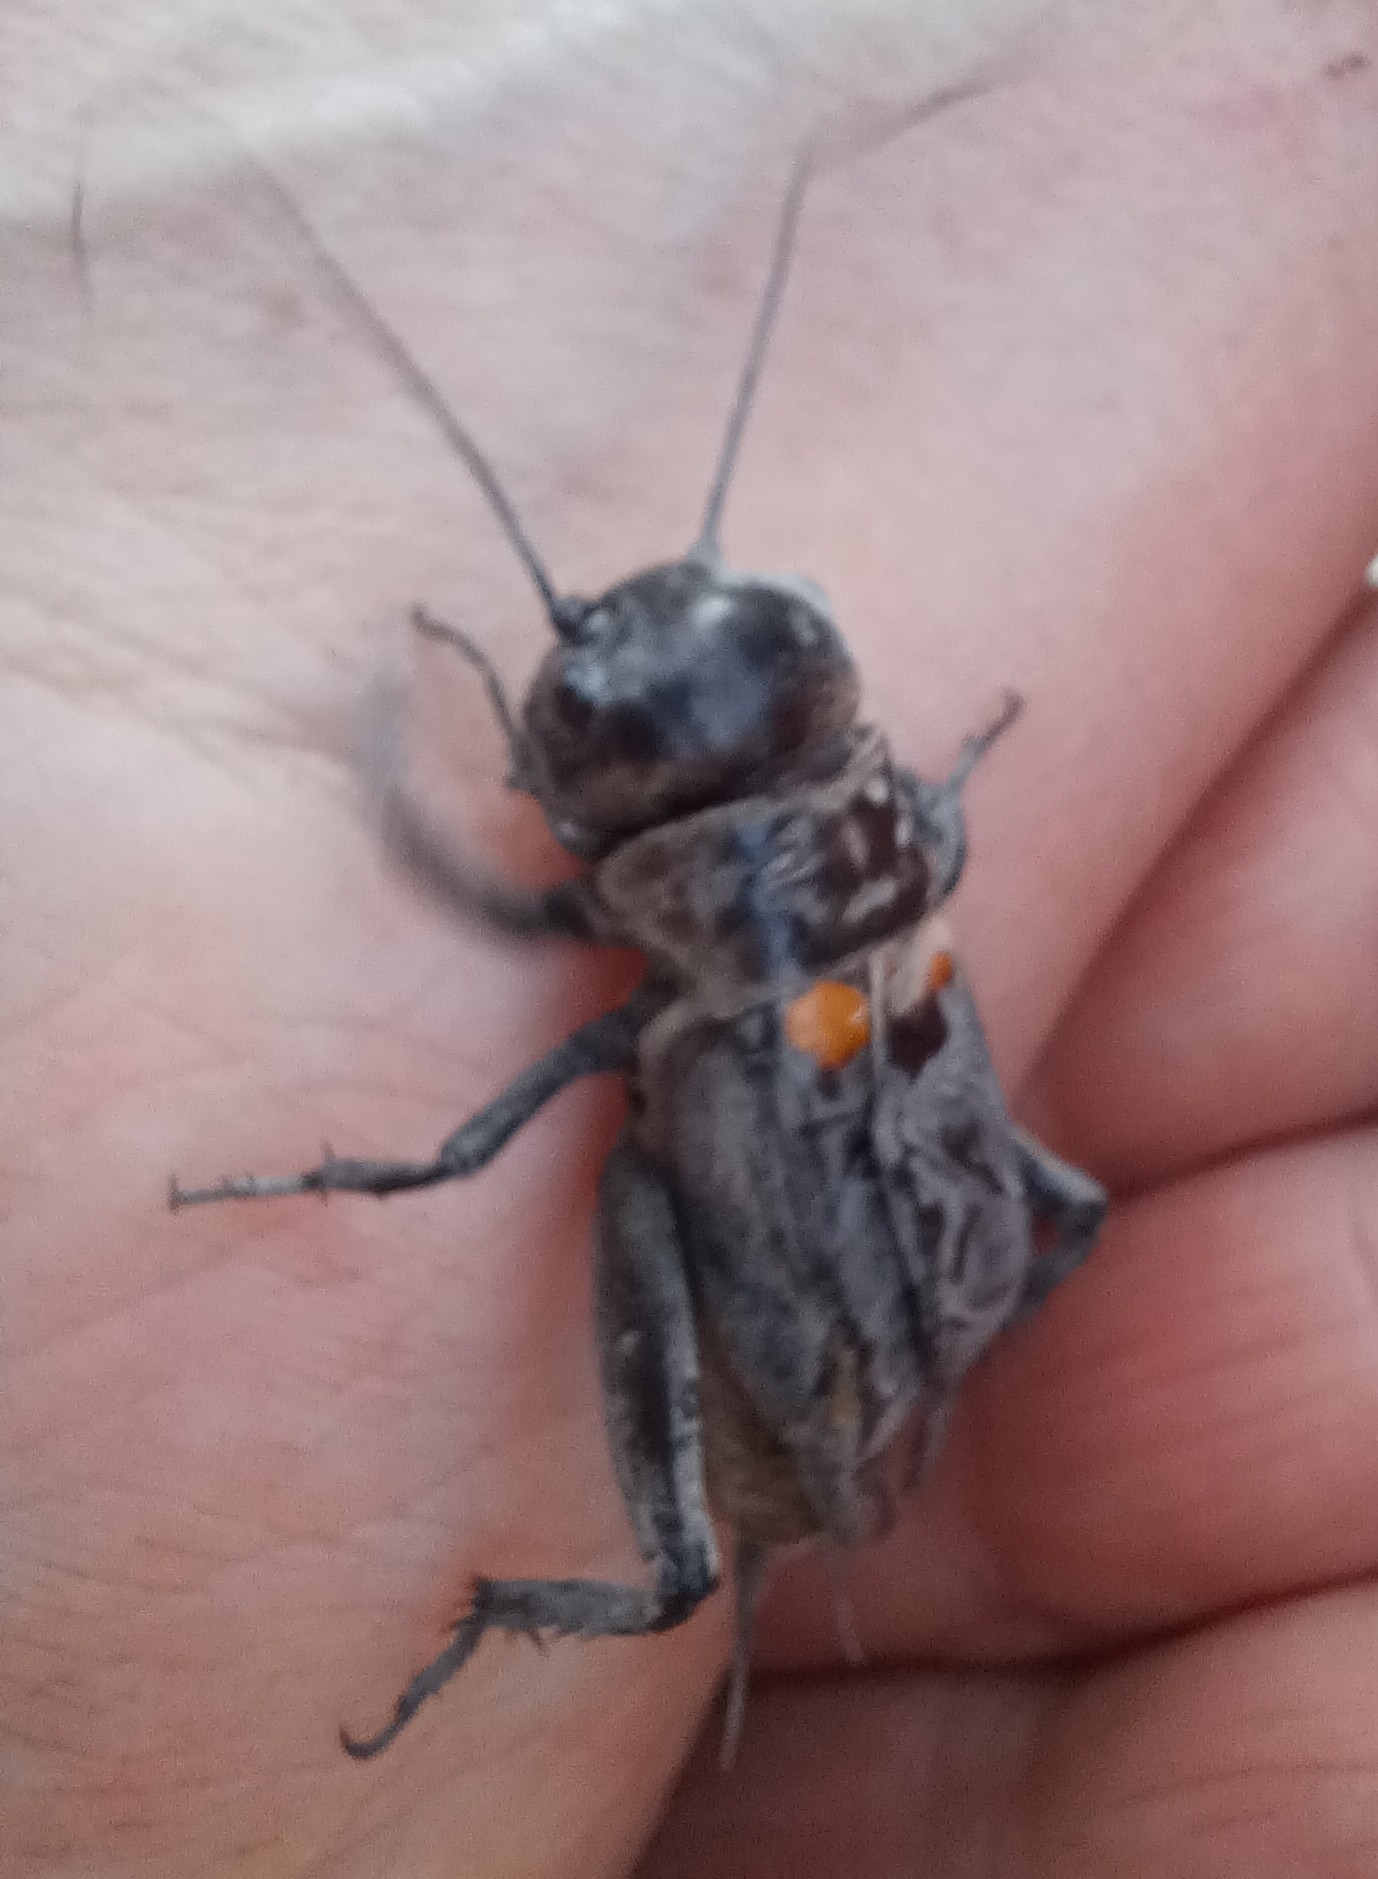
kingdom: Animalia
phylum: Arthropoda
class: Insecta
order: Orthoptera
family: Gryllidae
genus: Gryllus
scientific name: Gryllus campestris
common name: Field cricket
